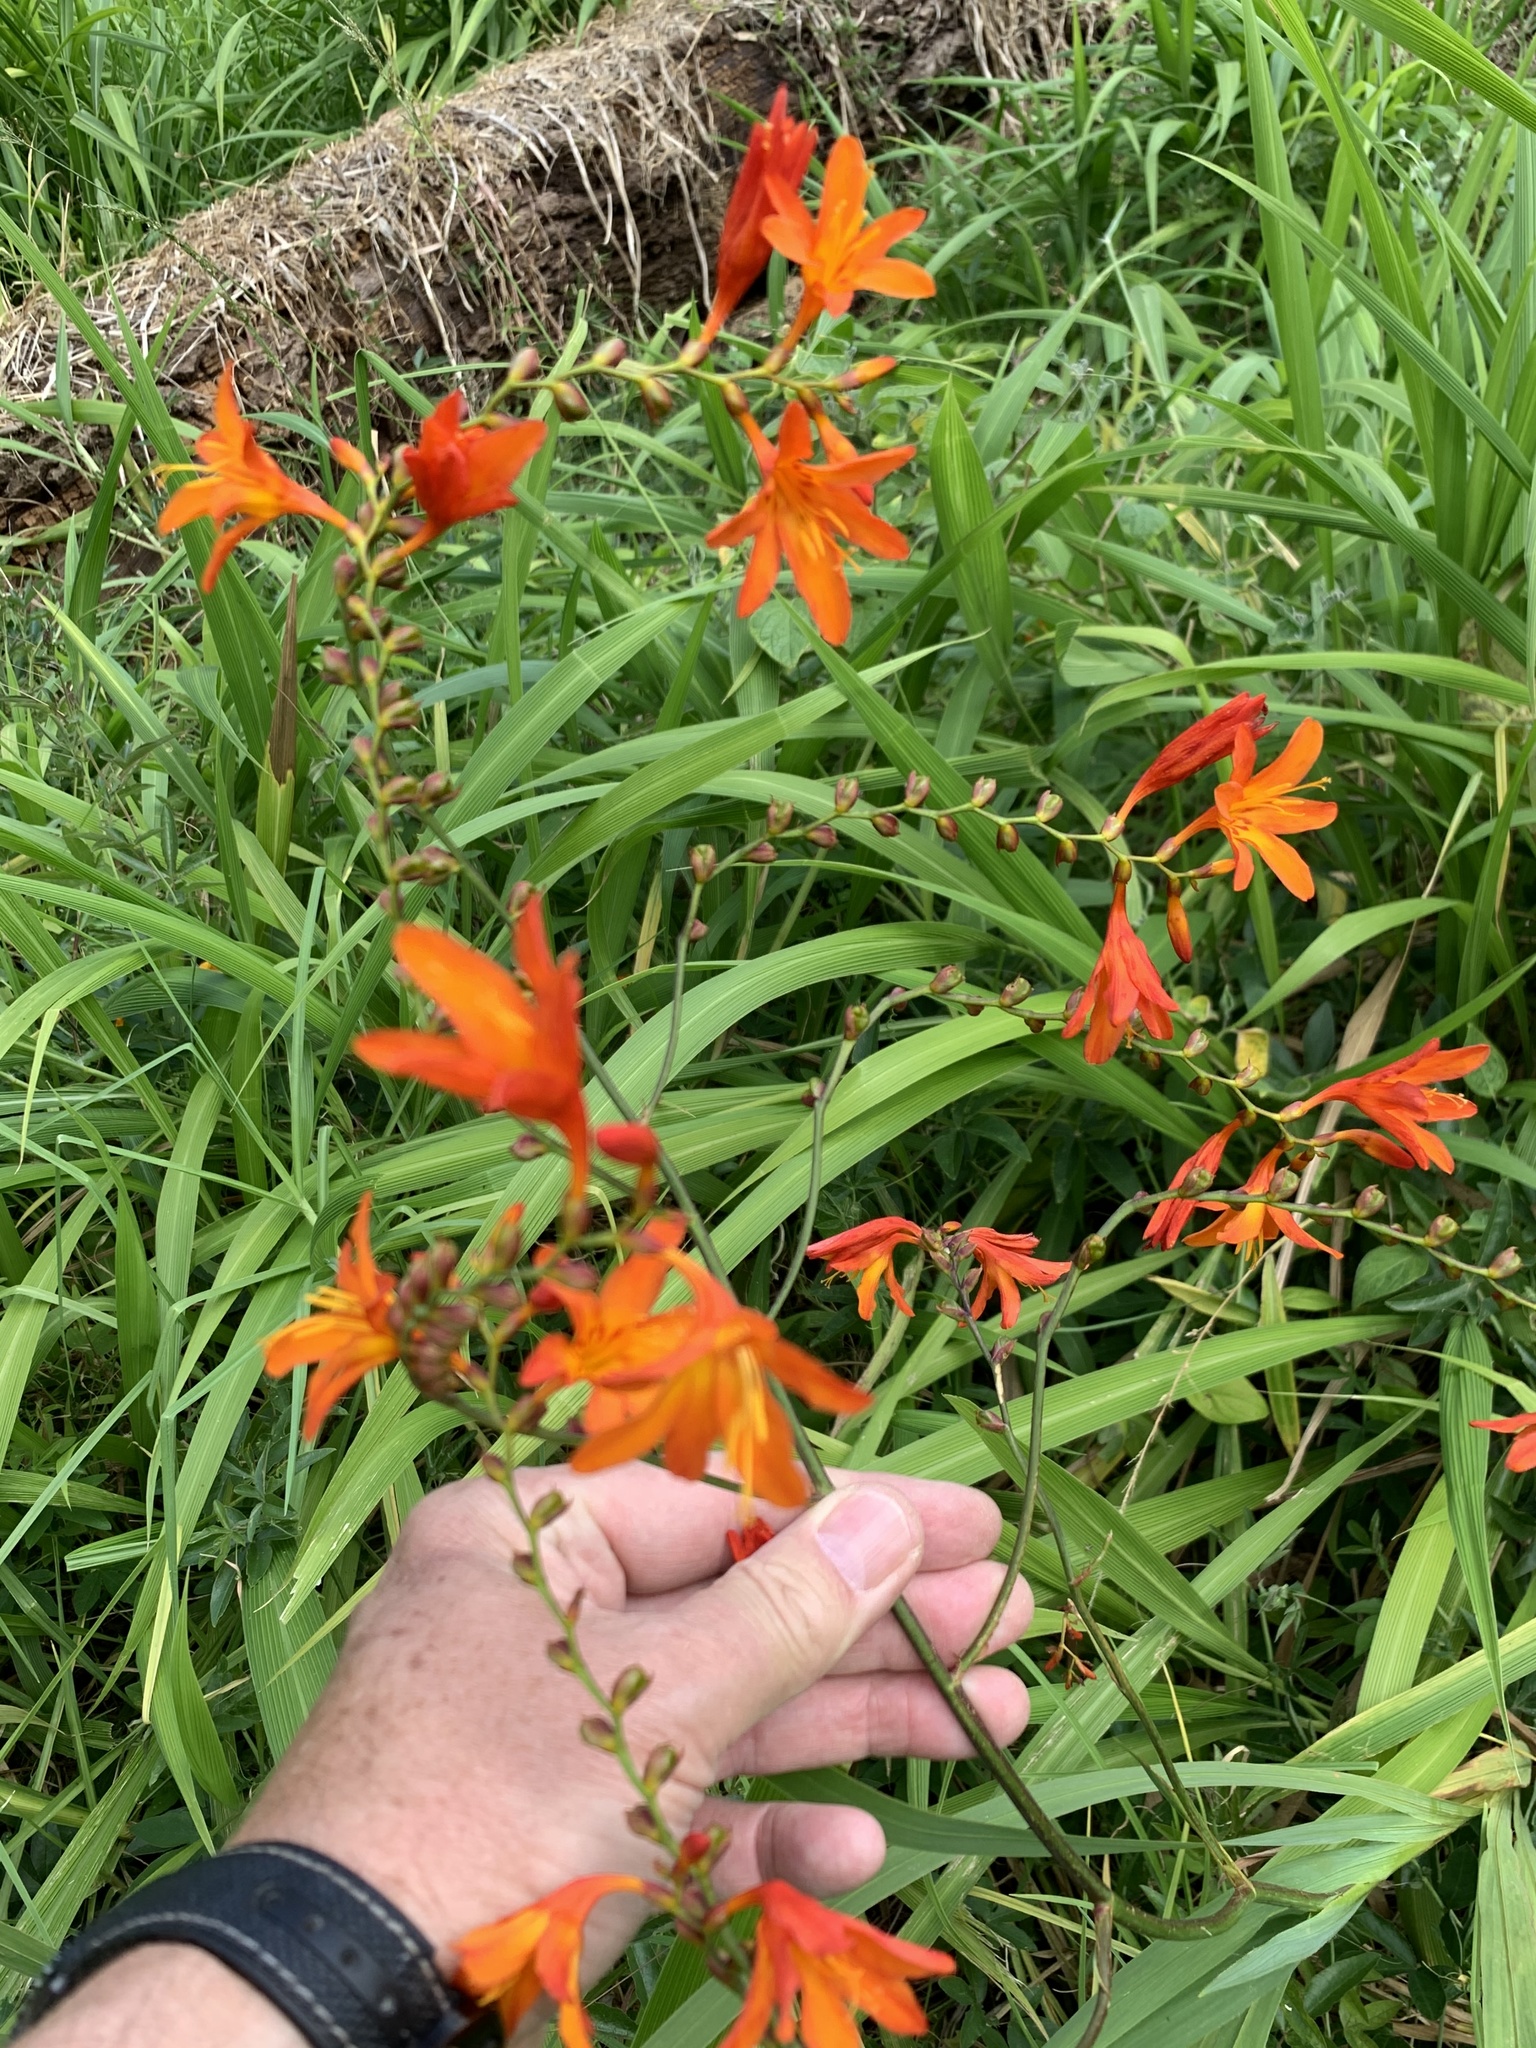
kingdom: Plantae
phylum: Tracheophyta
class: Liliopsida
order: Asparagales
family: Iridaceae
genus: Crocosmia
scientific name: Crocosmia crocosmiiflora
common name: Montbretia
